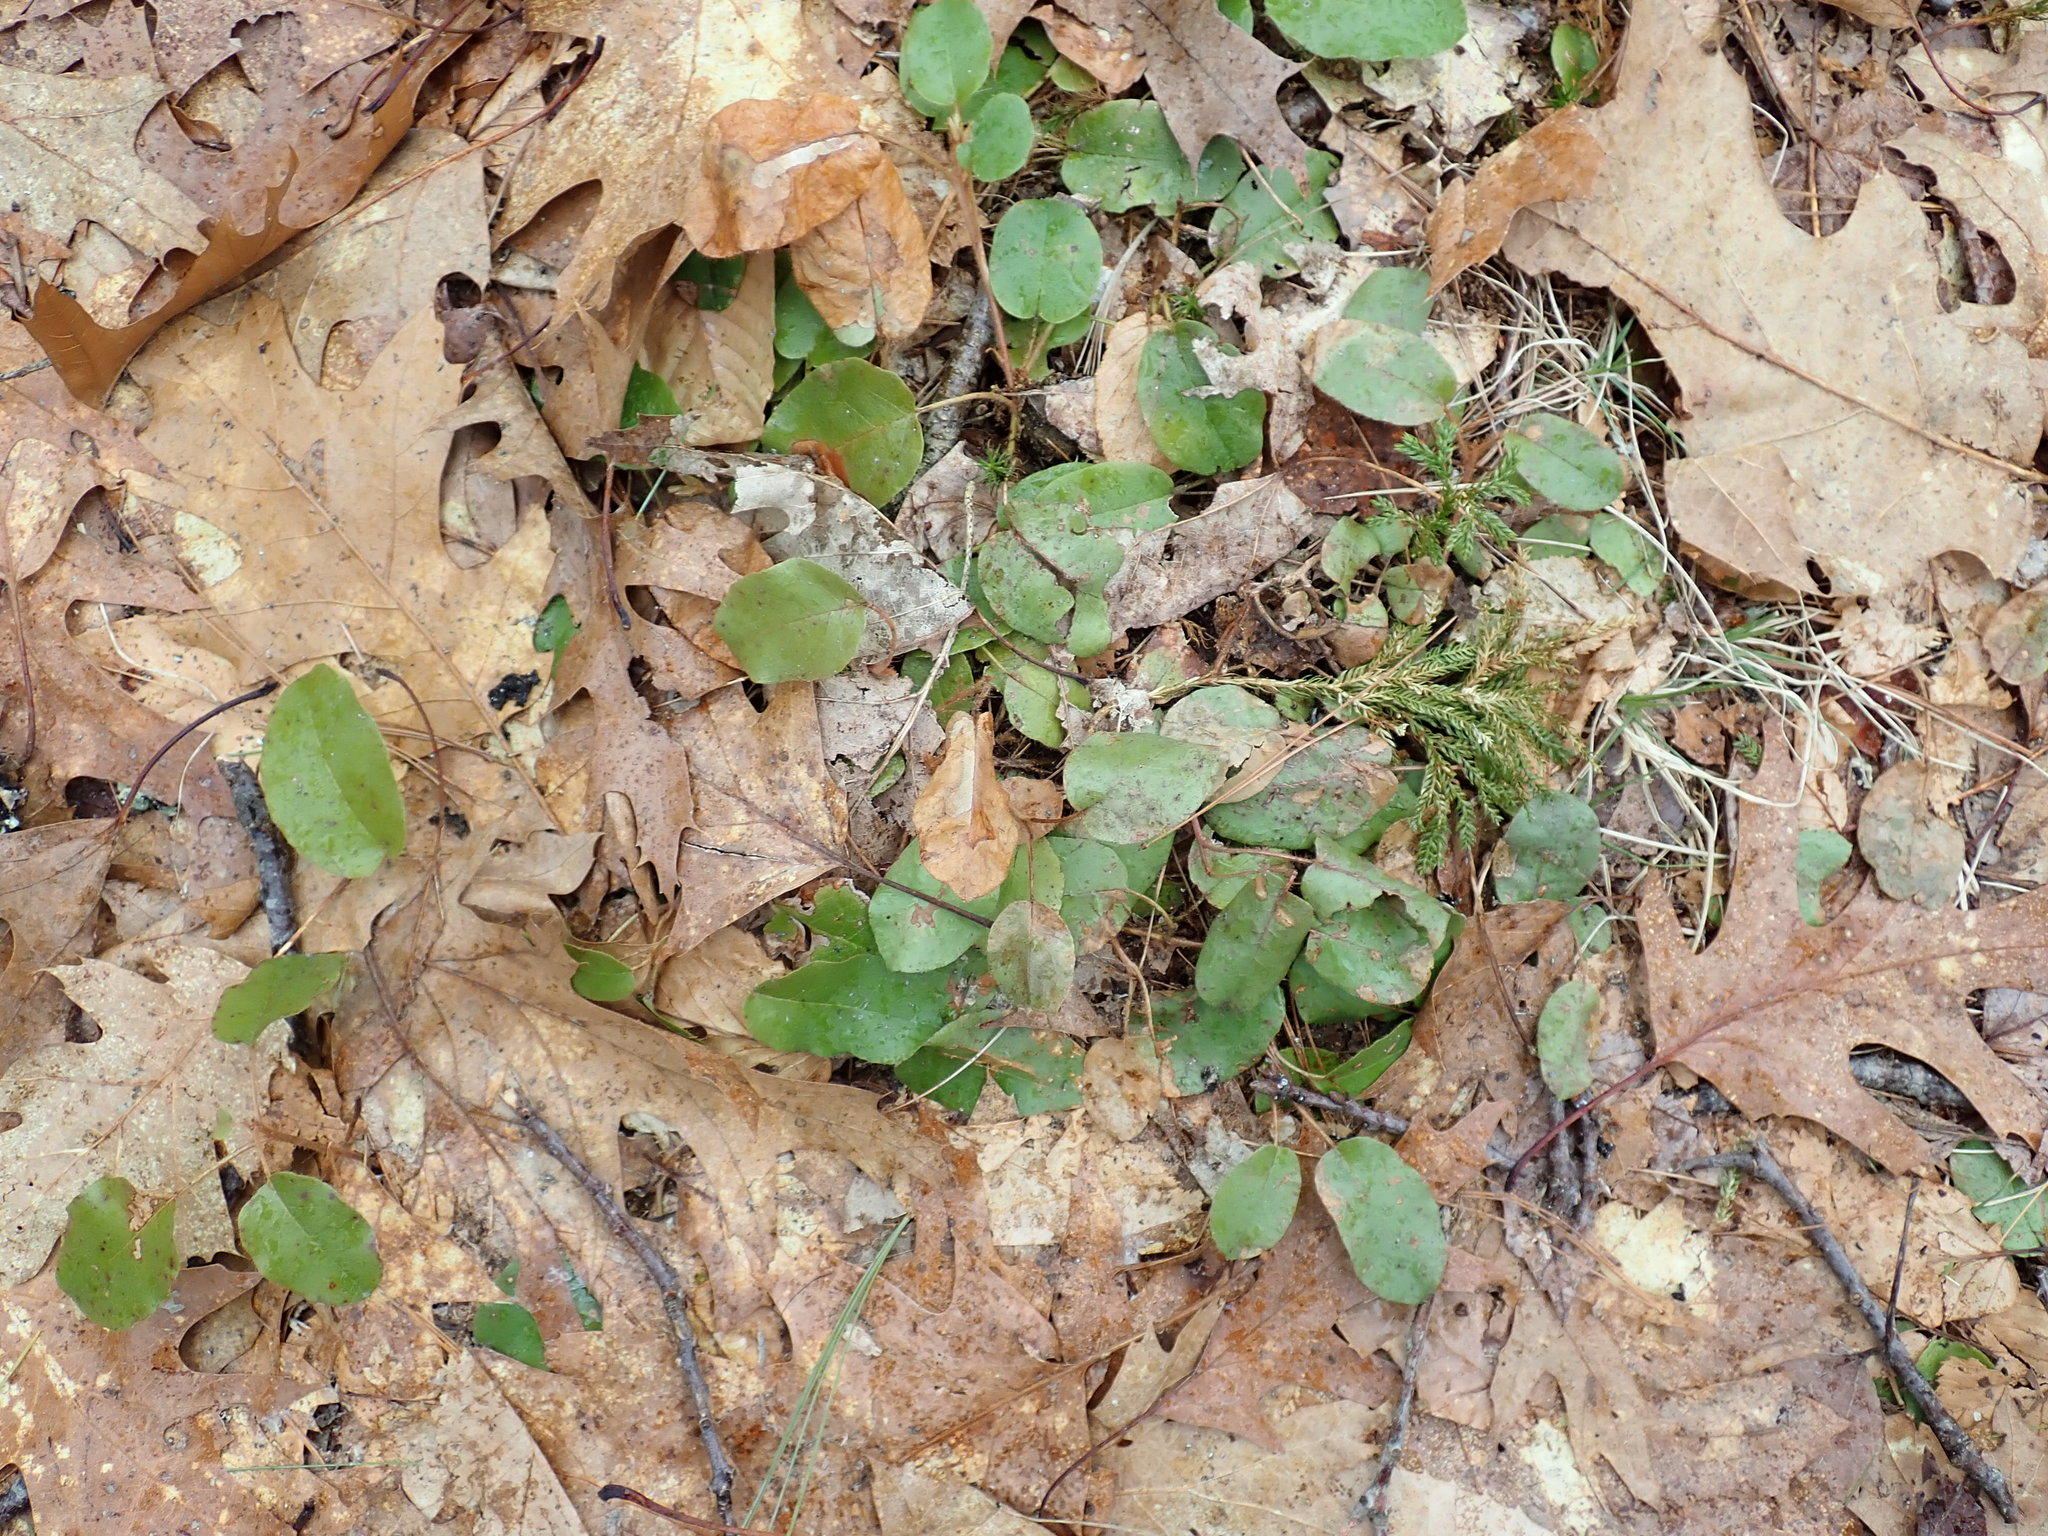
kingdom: Plantae
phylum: Tracheophyta
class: Magnoliopsida
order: Ericales
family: Ericaceae
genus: Epigaea
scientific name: Epigaea repens
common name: Gravelroot
